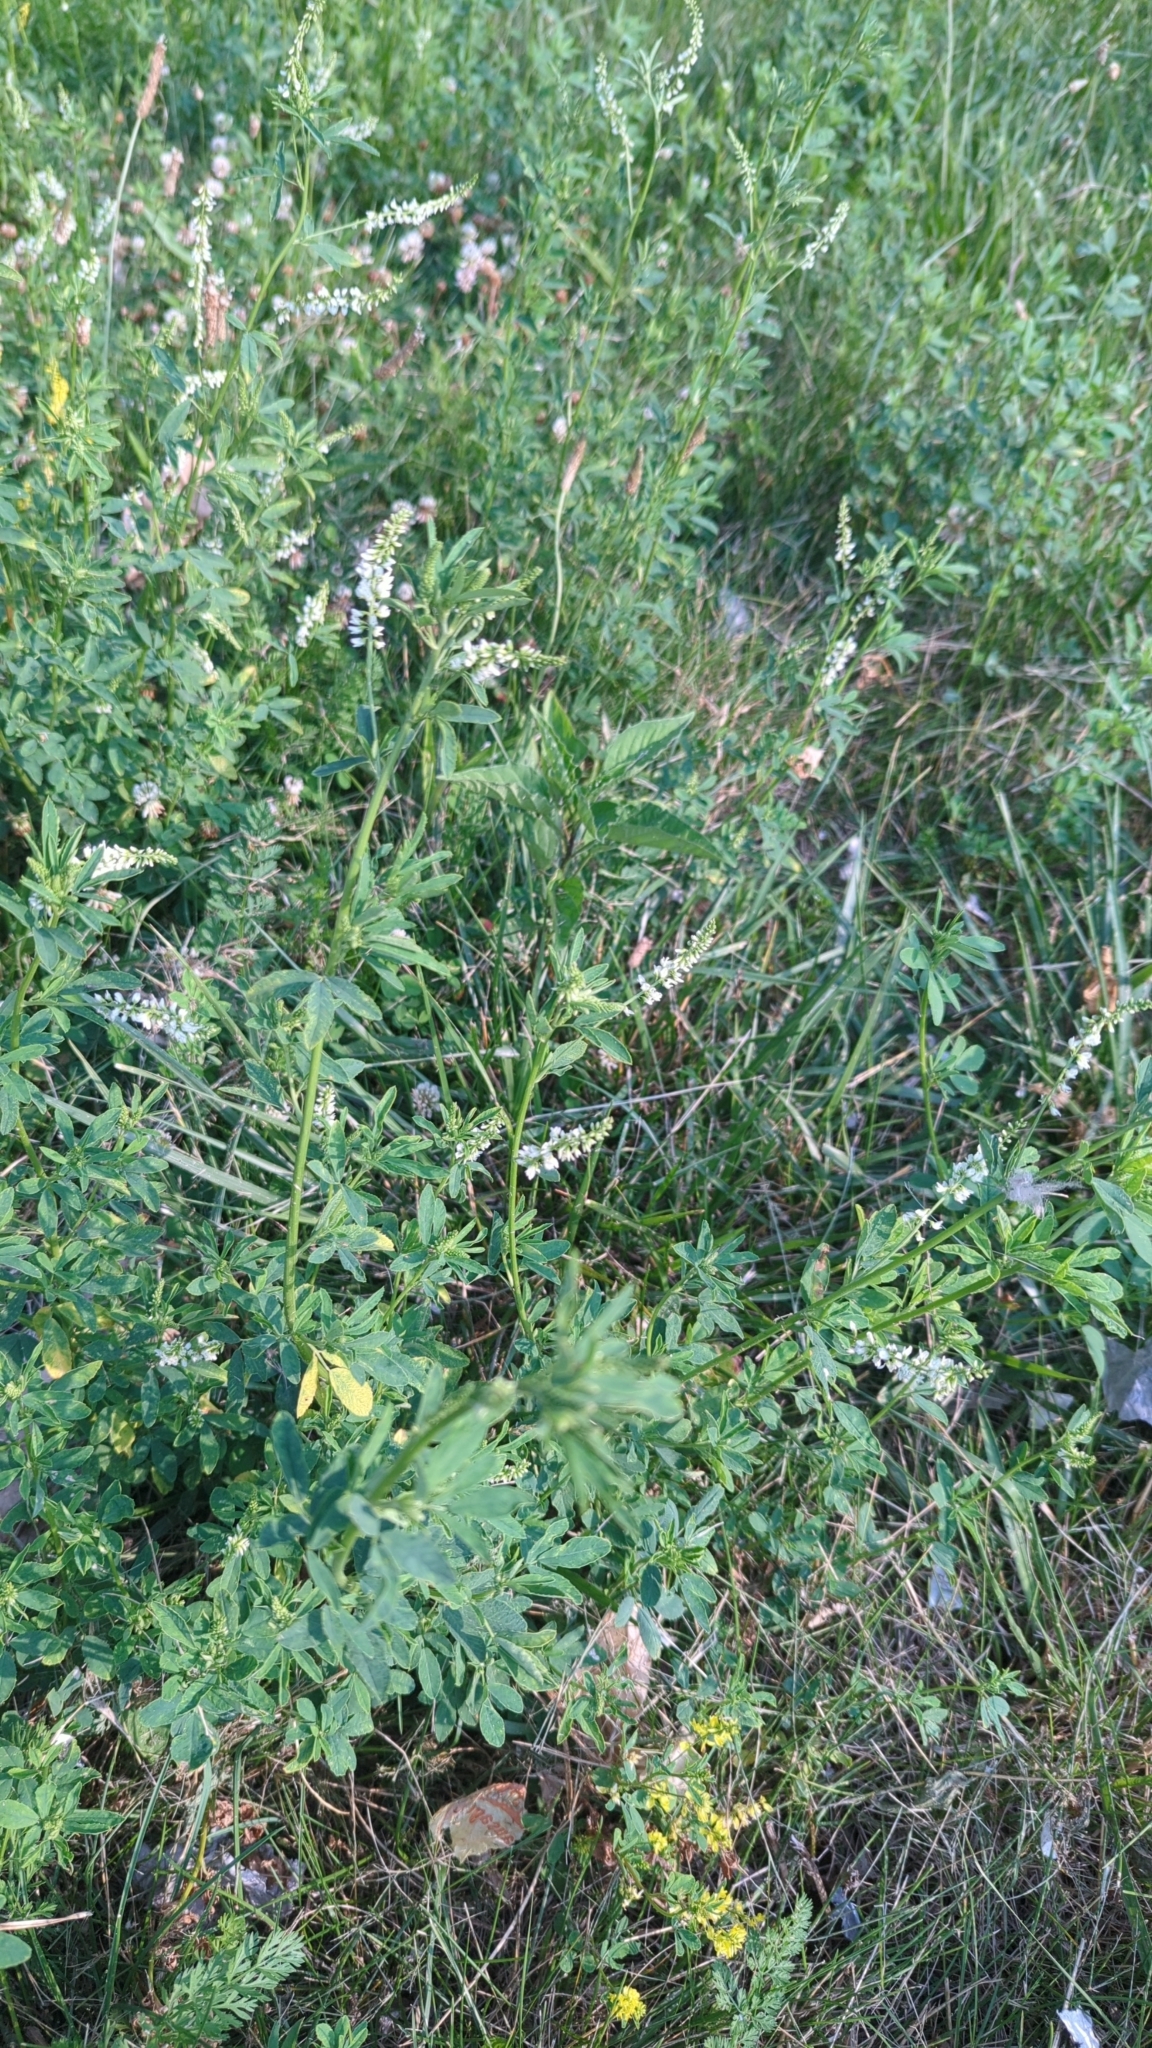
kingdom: Plantae
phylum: Tracheophyta
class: Magnoliopsida
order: Fabales
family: Fabaceae
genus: Melilotus
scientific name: Melilotus albus
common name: White melilot
